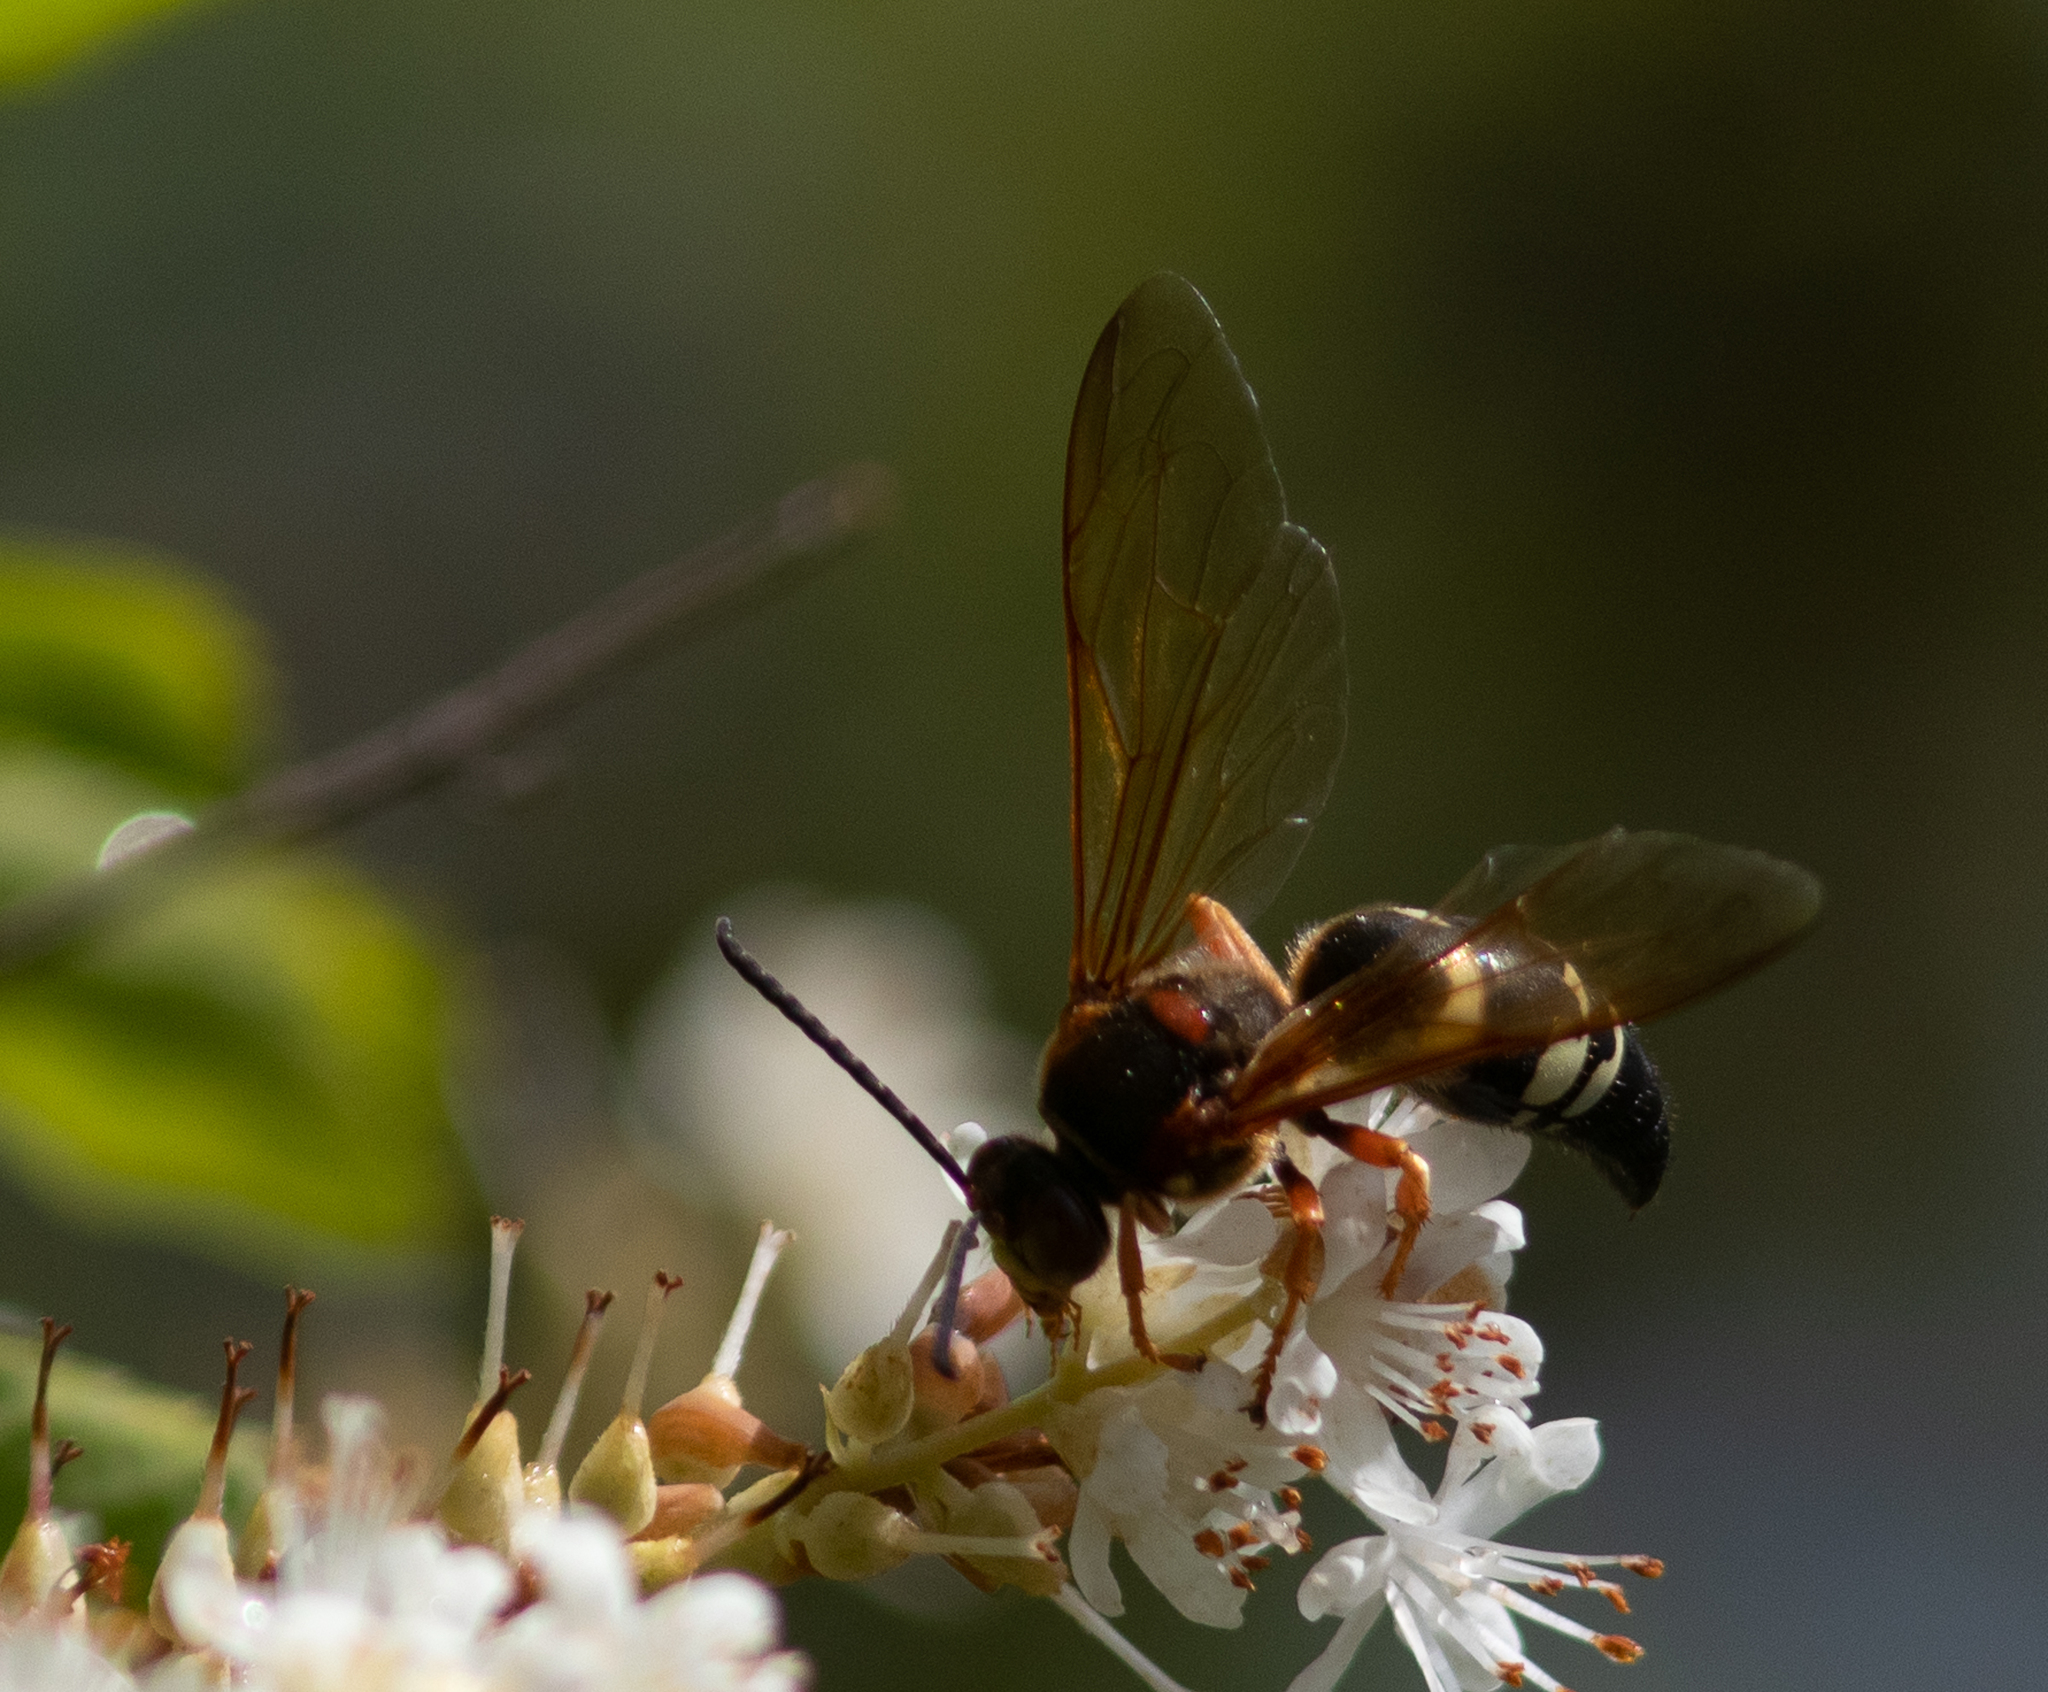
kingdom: Animalia
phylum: Arthropoda
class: Insecta
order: Hymenoptera
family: Crabronidae
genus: Sphecius
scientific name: Sphecius speciosus
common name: Cicada killer
